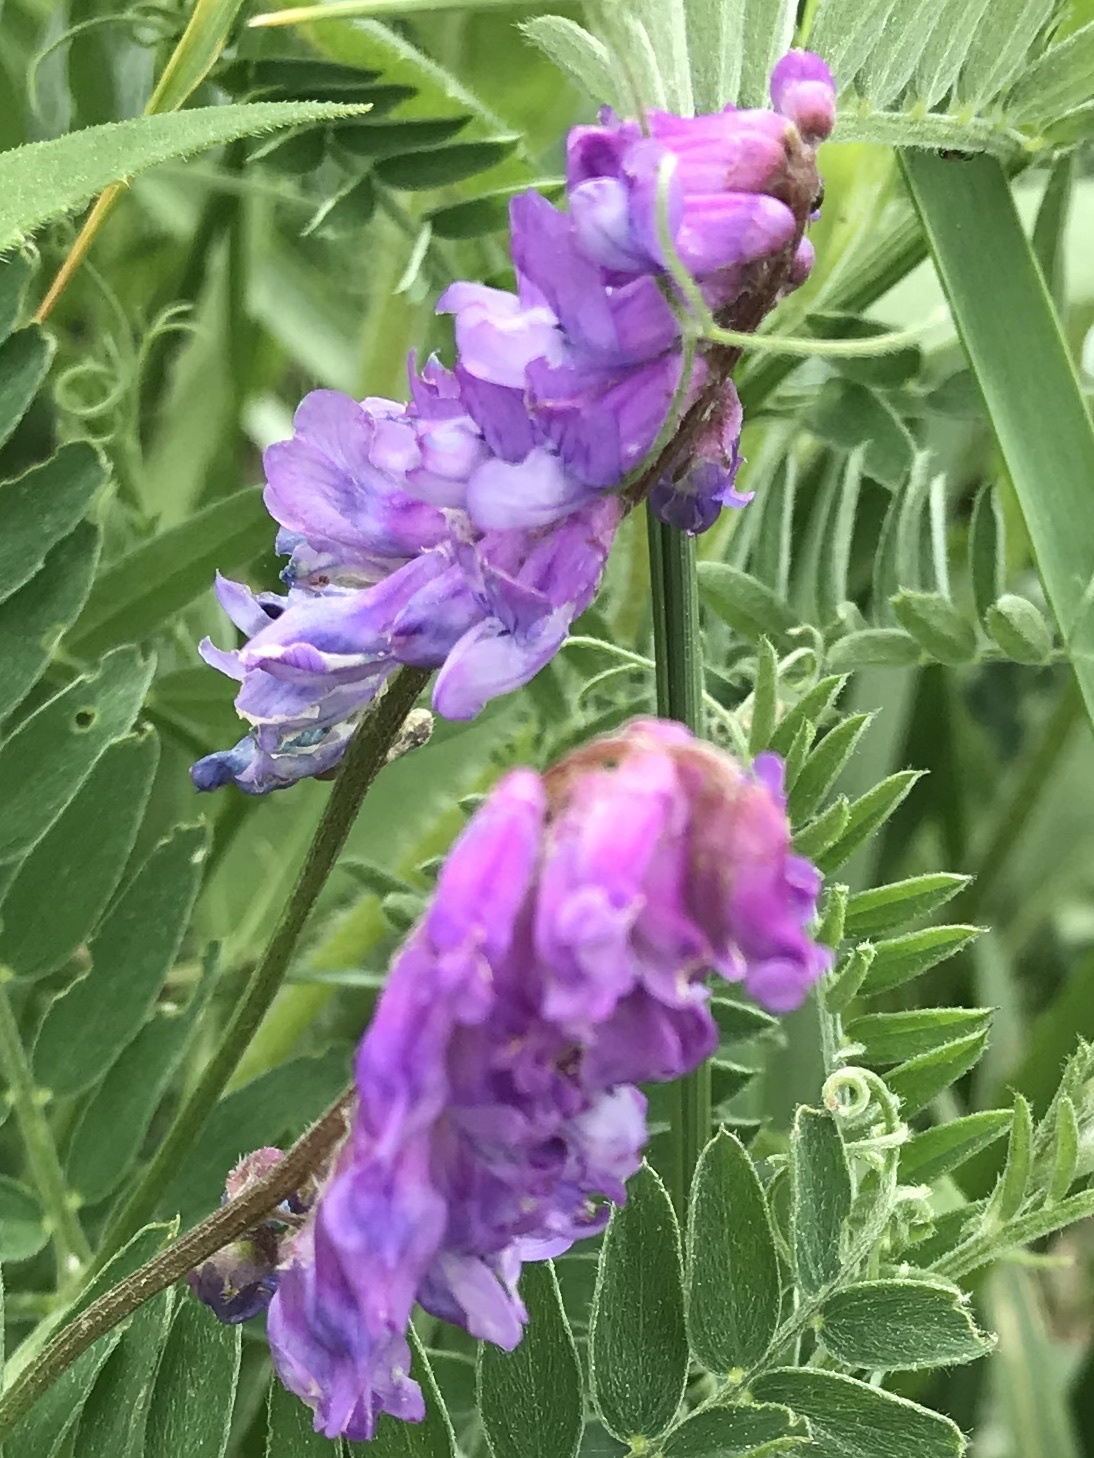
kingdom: Plantae
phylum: Tracheophyta
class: Magnoliopsida
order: Fabales
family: Fabaceae
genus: Vicia
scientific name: Vicia cracca
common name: Bird vetch
